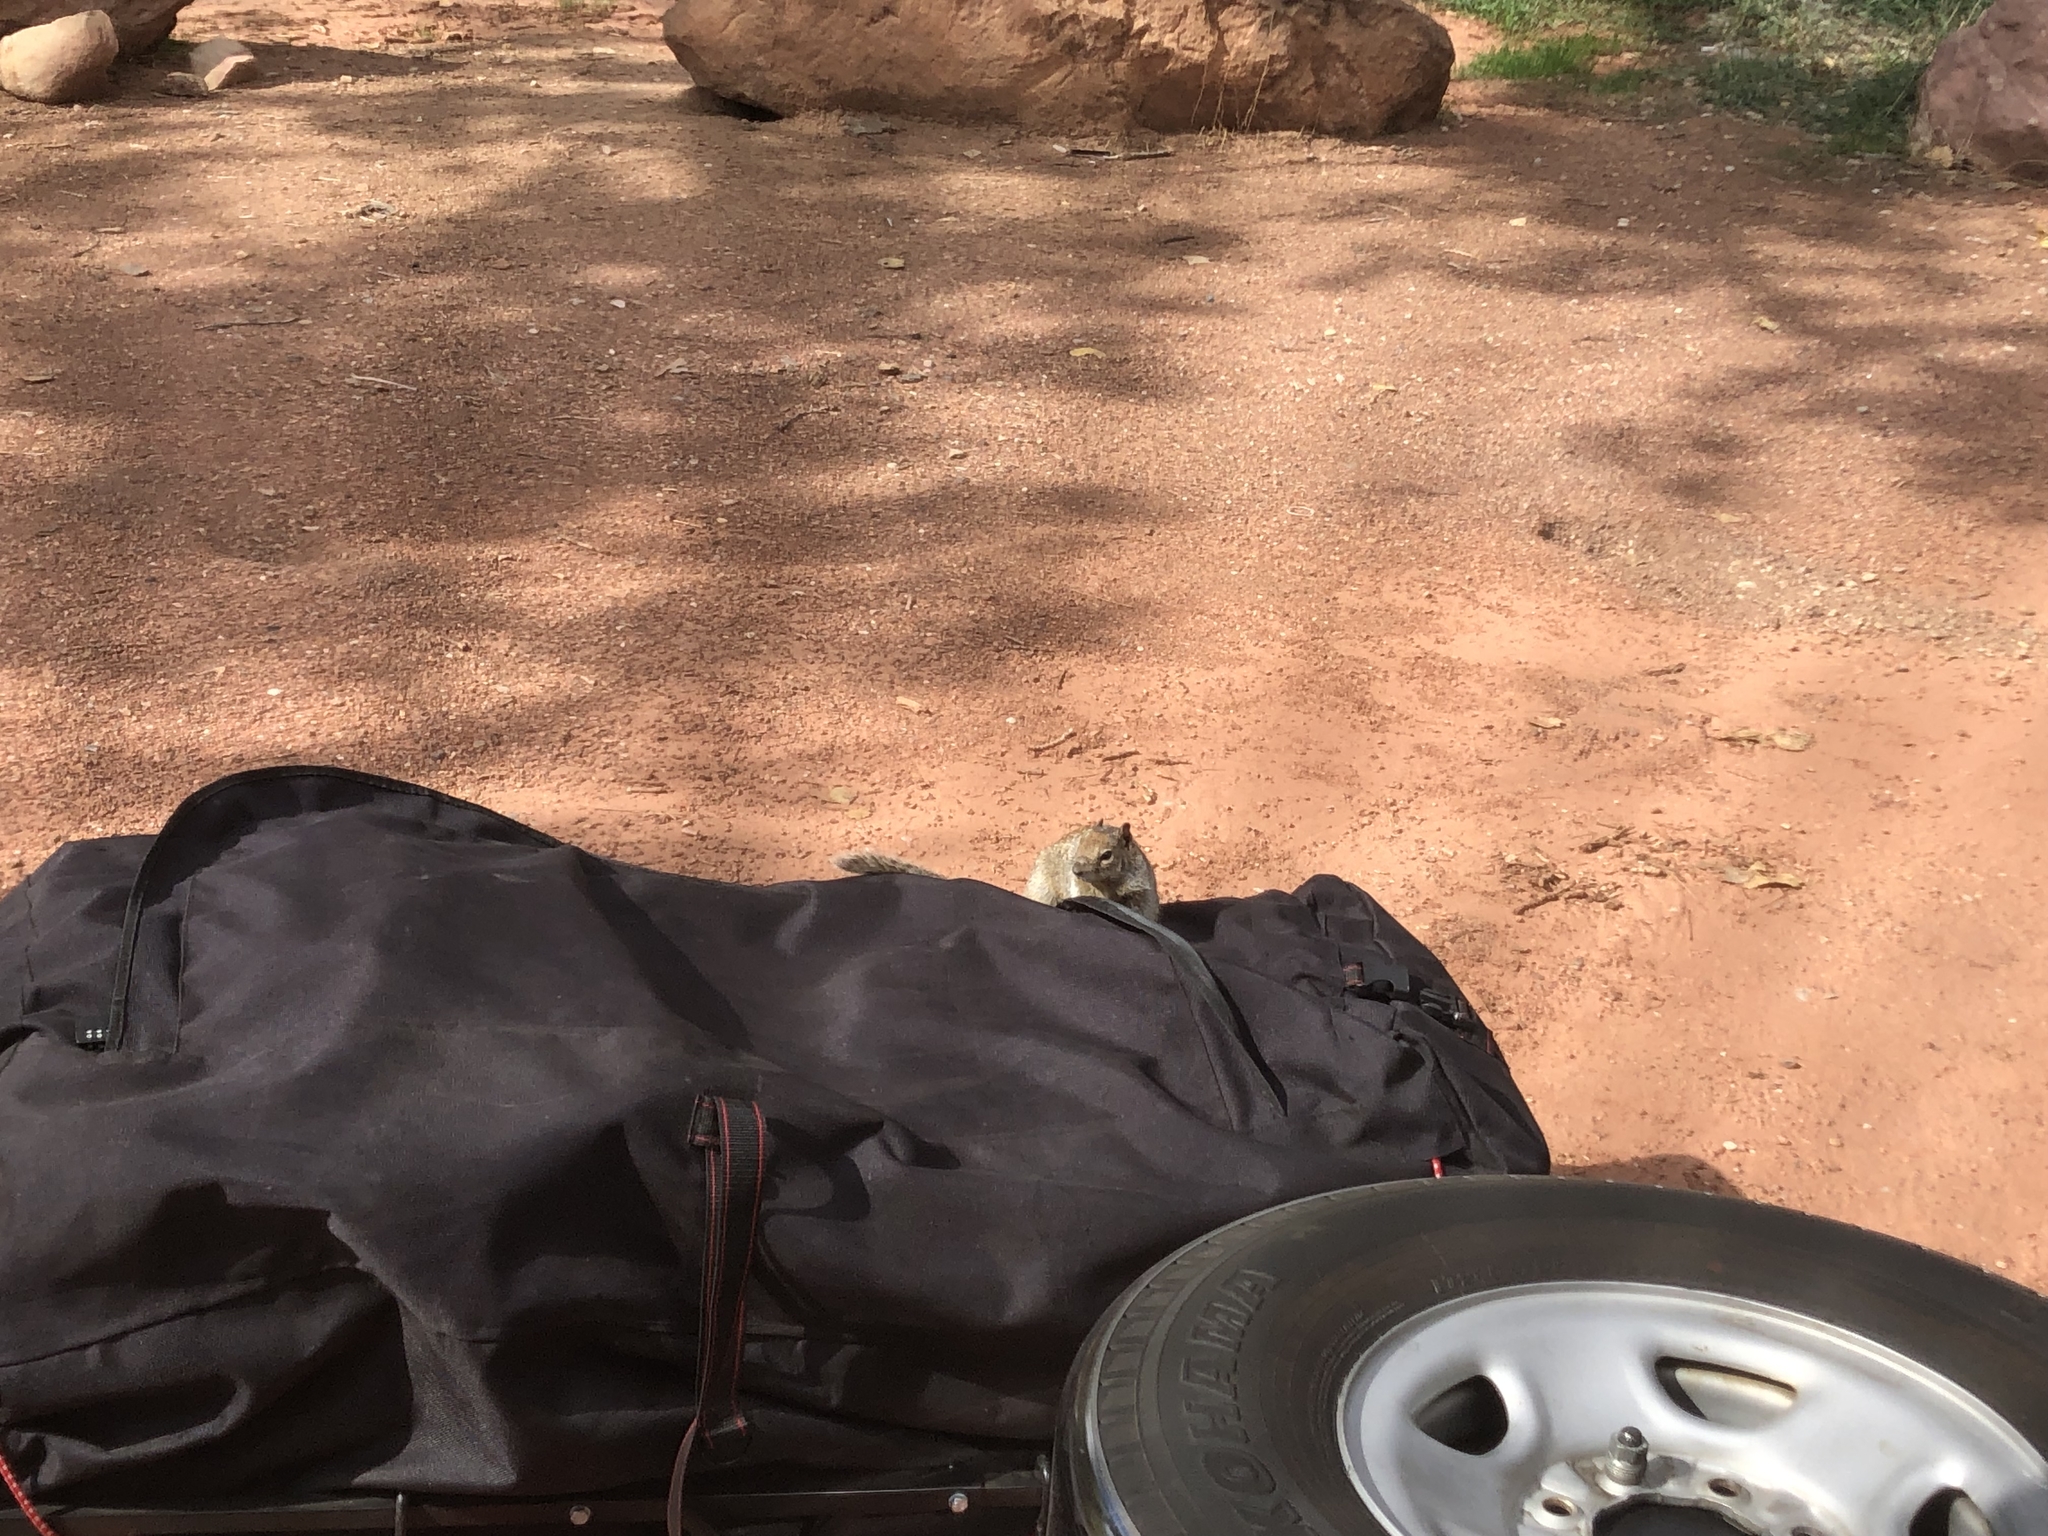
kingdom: Animalia
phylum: Chordata
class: Mammalia
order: Rodentia
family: Sciuridae
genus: Otospermophilus
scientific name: Otospermophilus variegatus
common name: Rock squirrel
